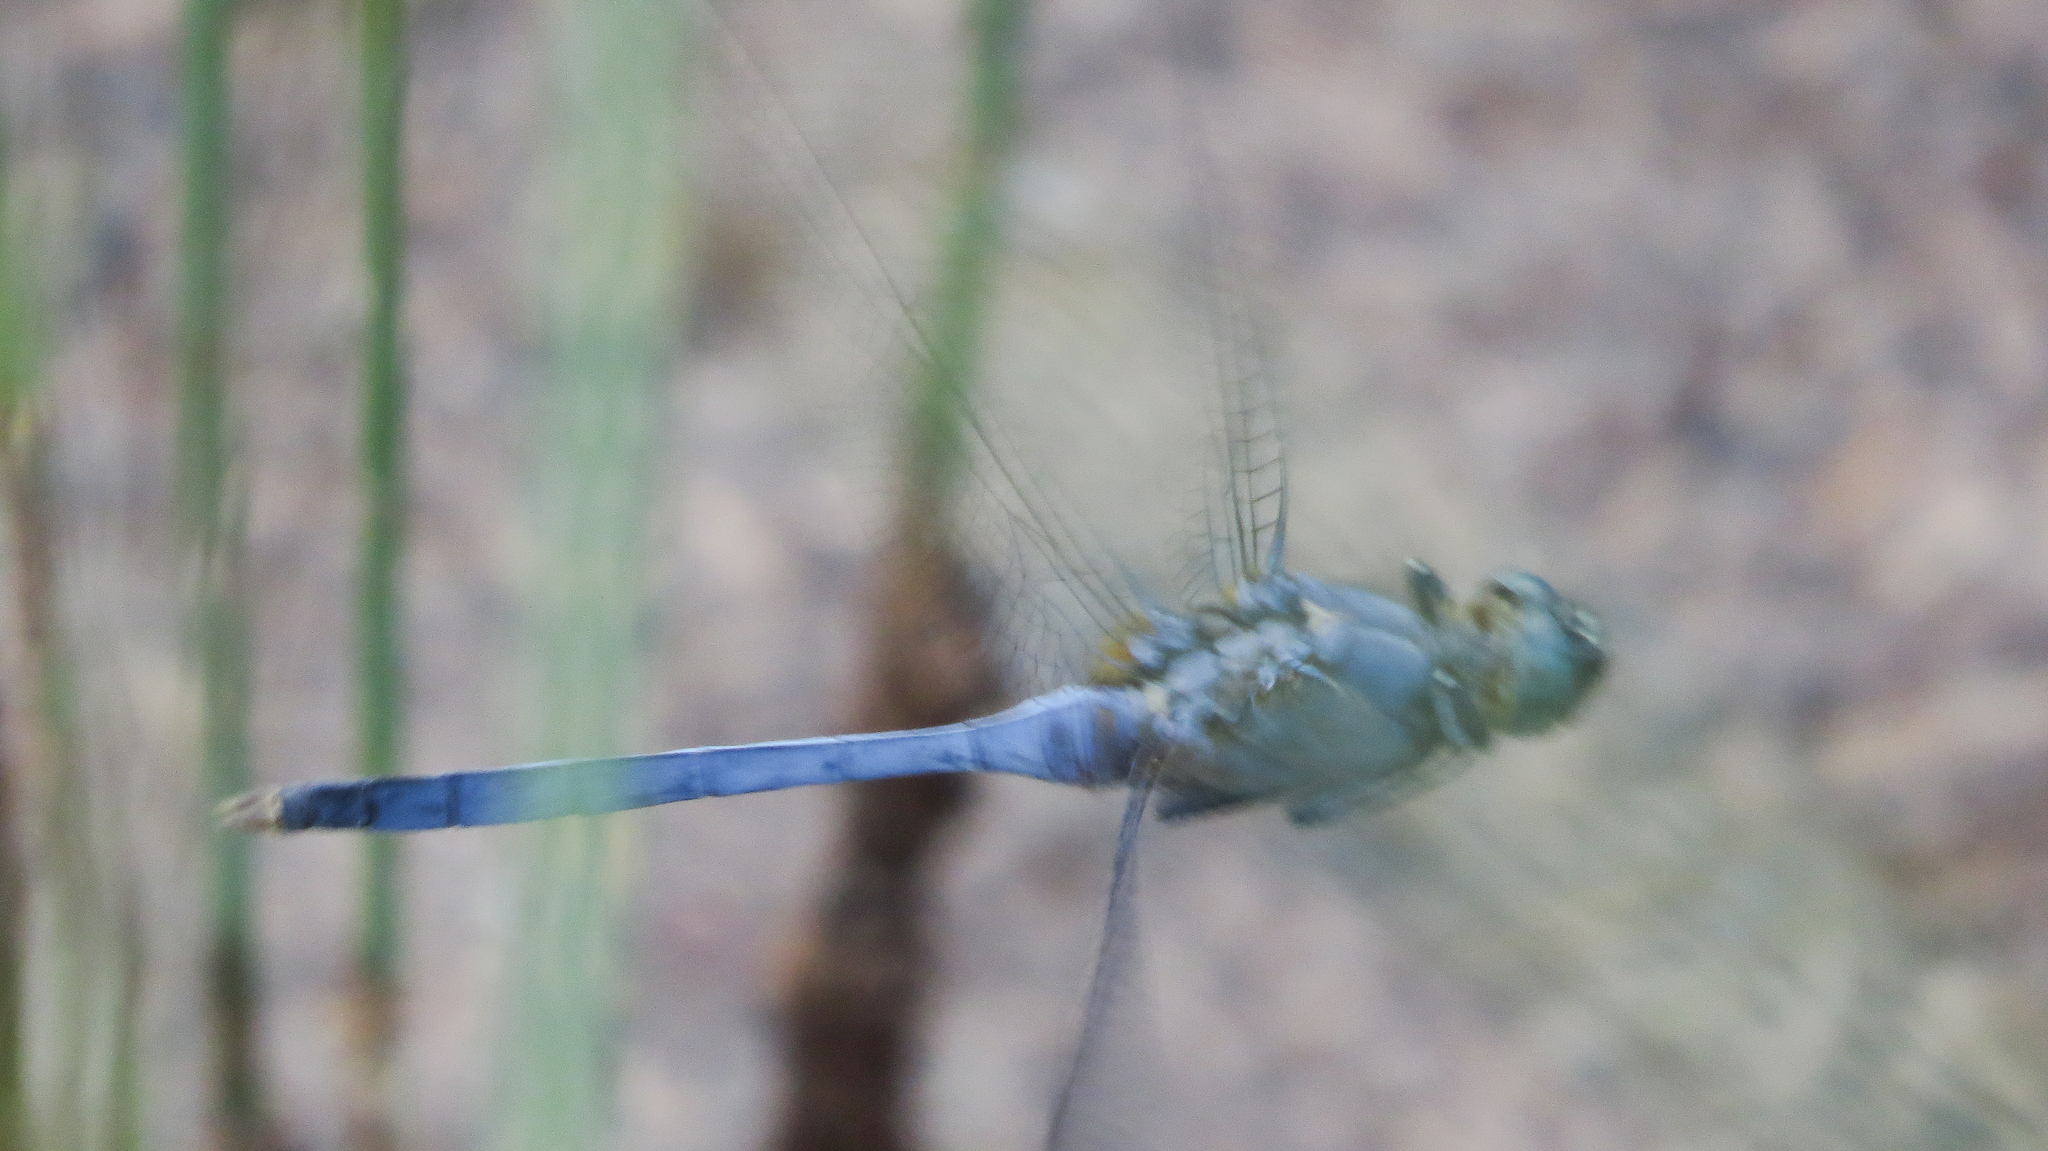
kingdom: Animalia
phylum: Arthropoda
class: Insecta
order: Odonata
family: Libellulidae
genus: Orthetrum
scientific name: Orthetrum boumiera
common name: Brownwater skimmer
